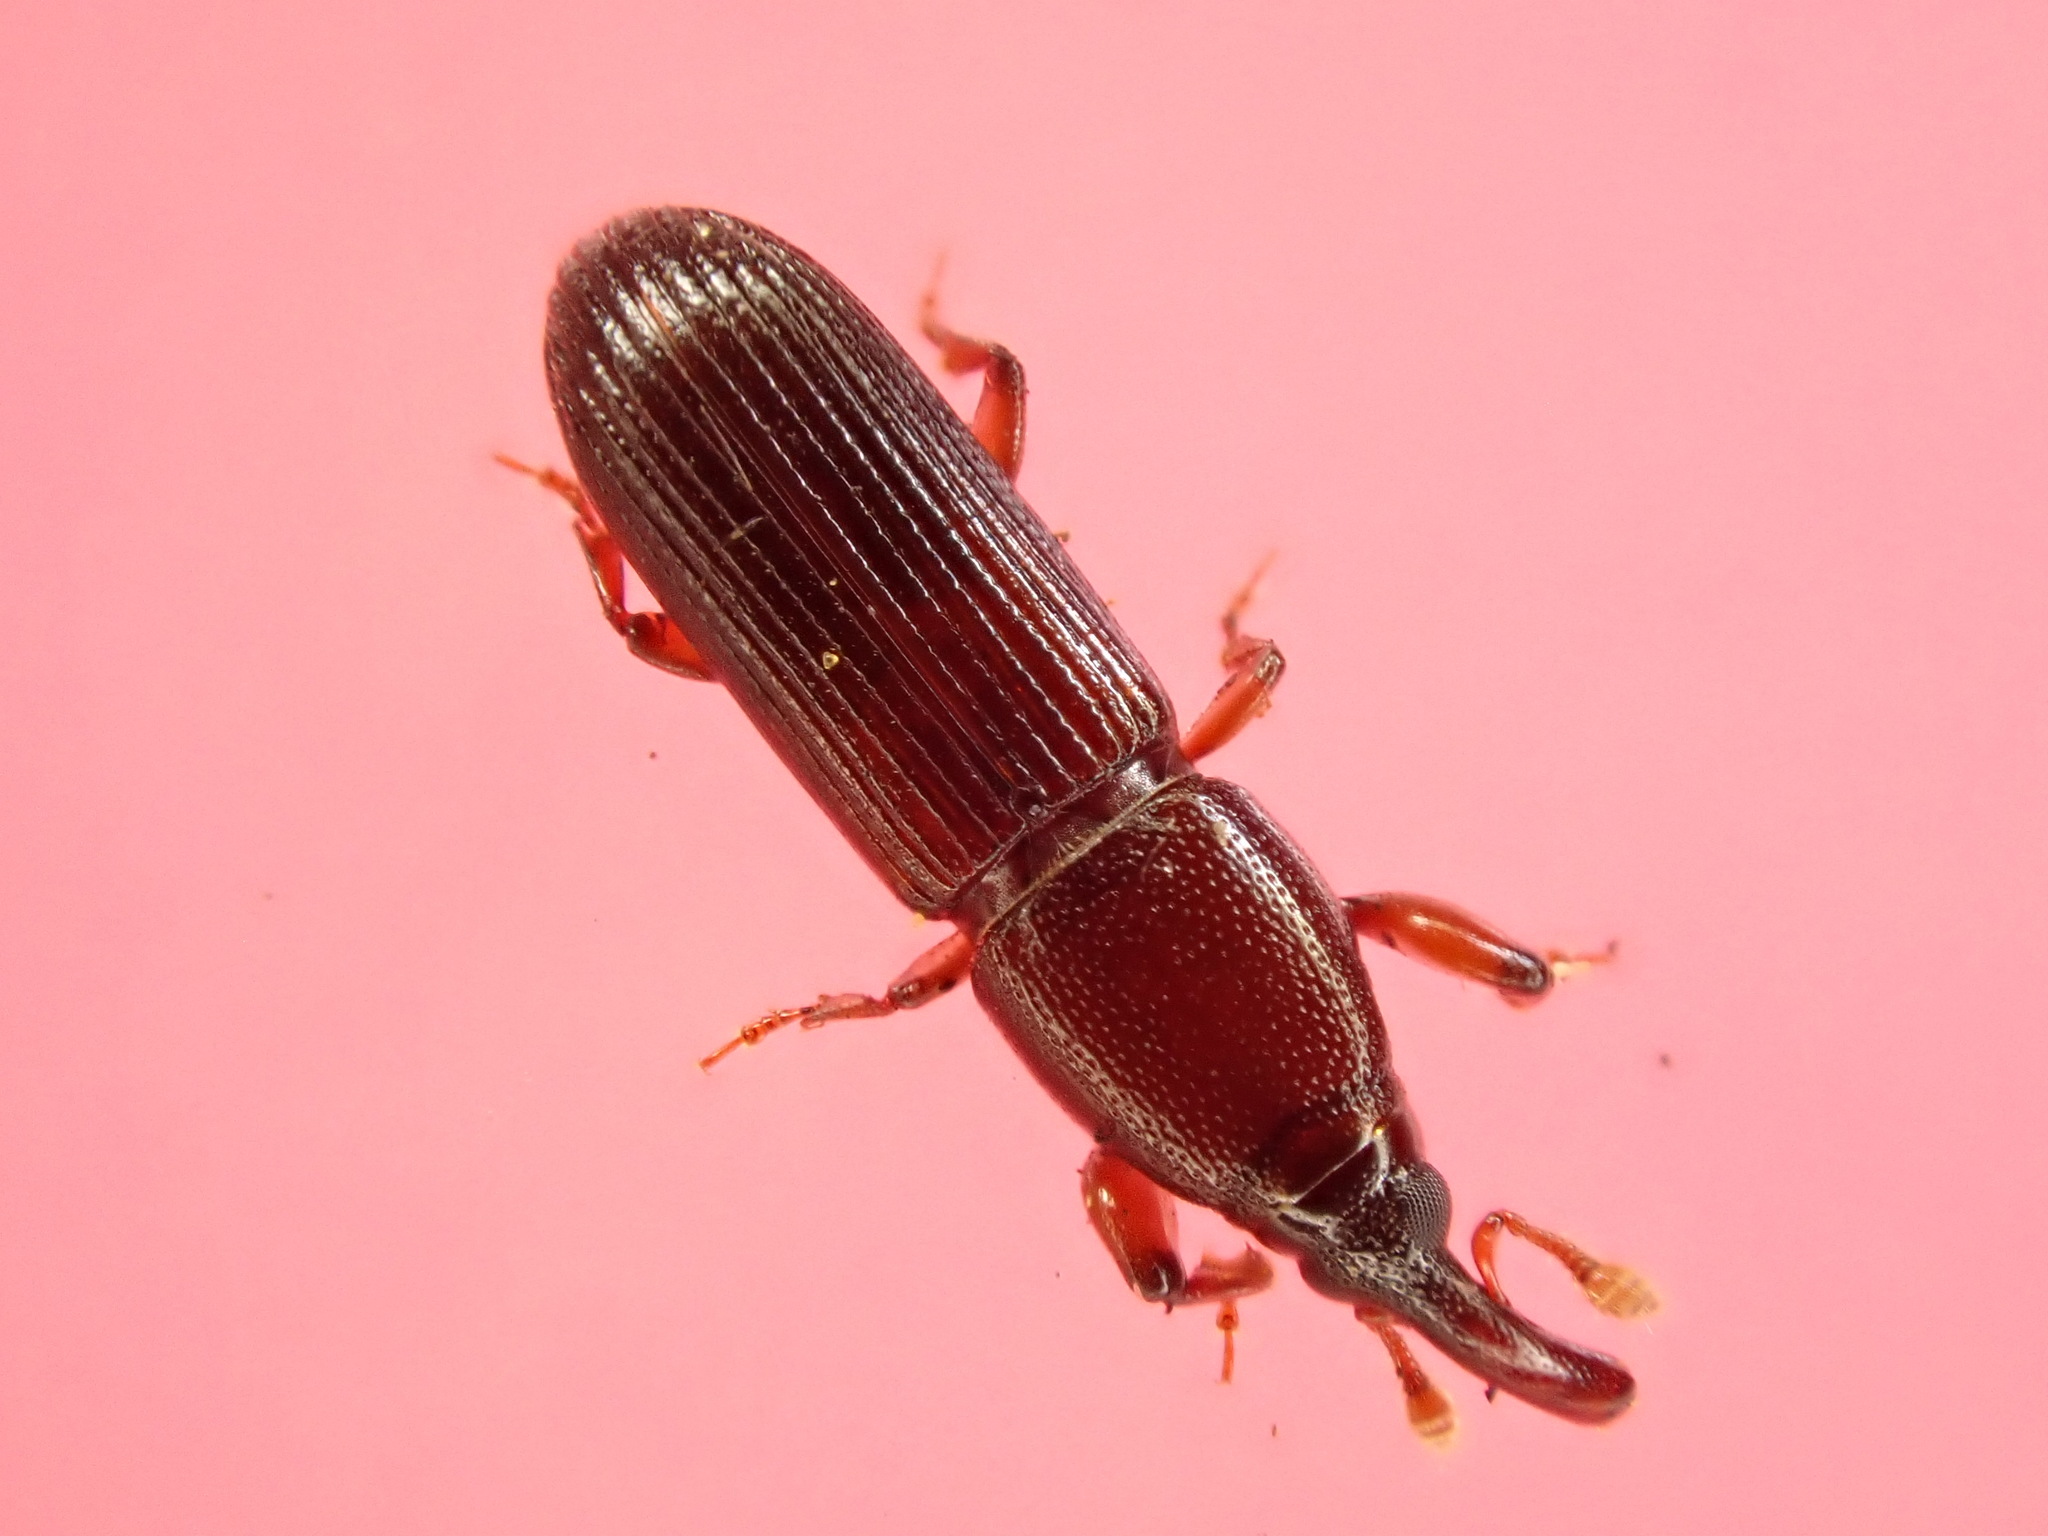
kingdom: Animalia
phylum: Arthropoda
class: Insecta
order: Coleoptera
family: Curculionidae
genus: Catolethrus
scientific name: Catolethrus silvestris
